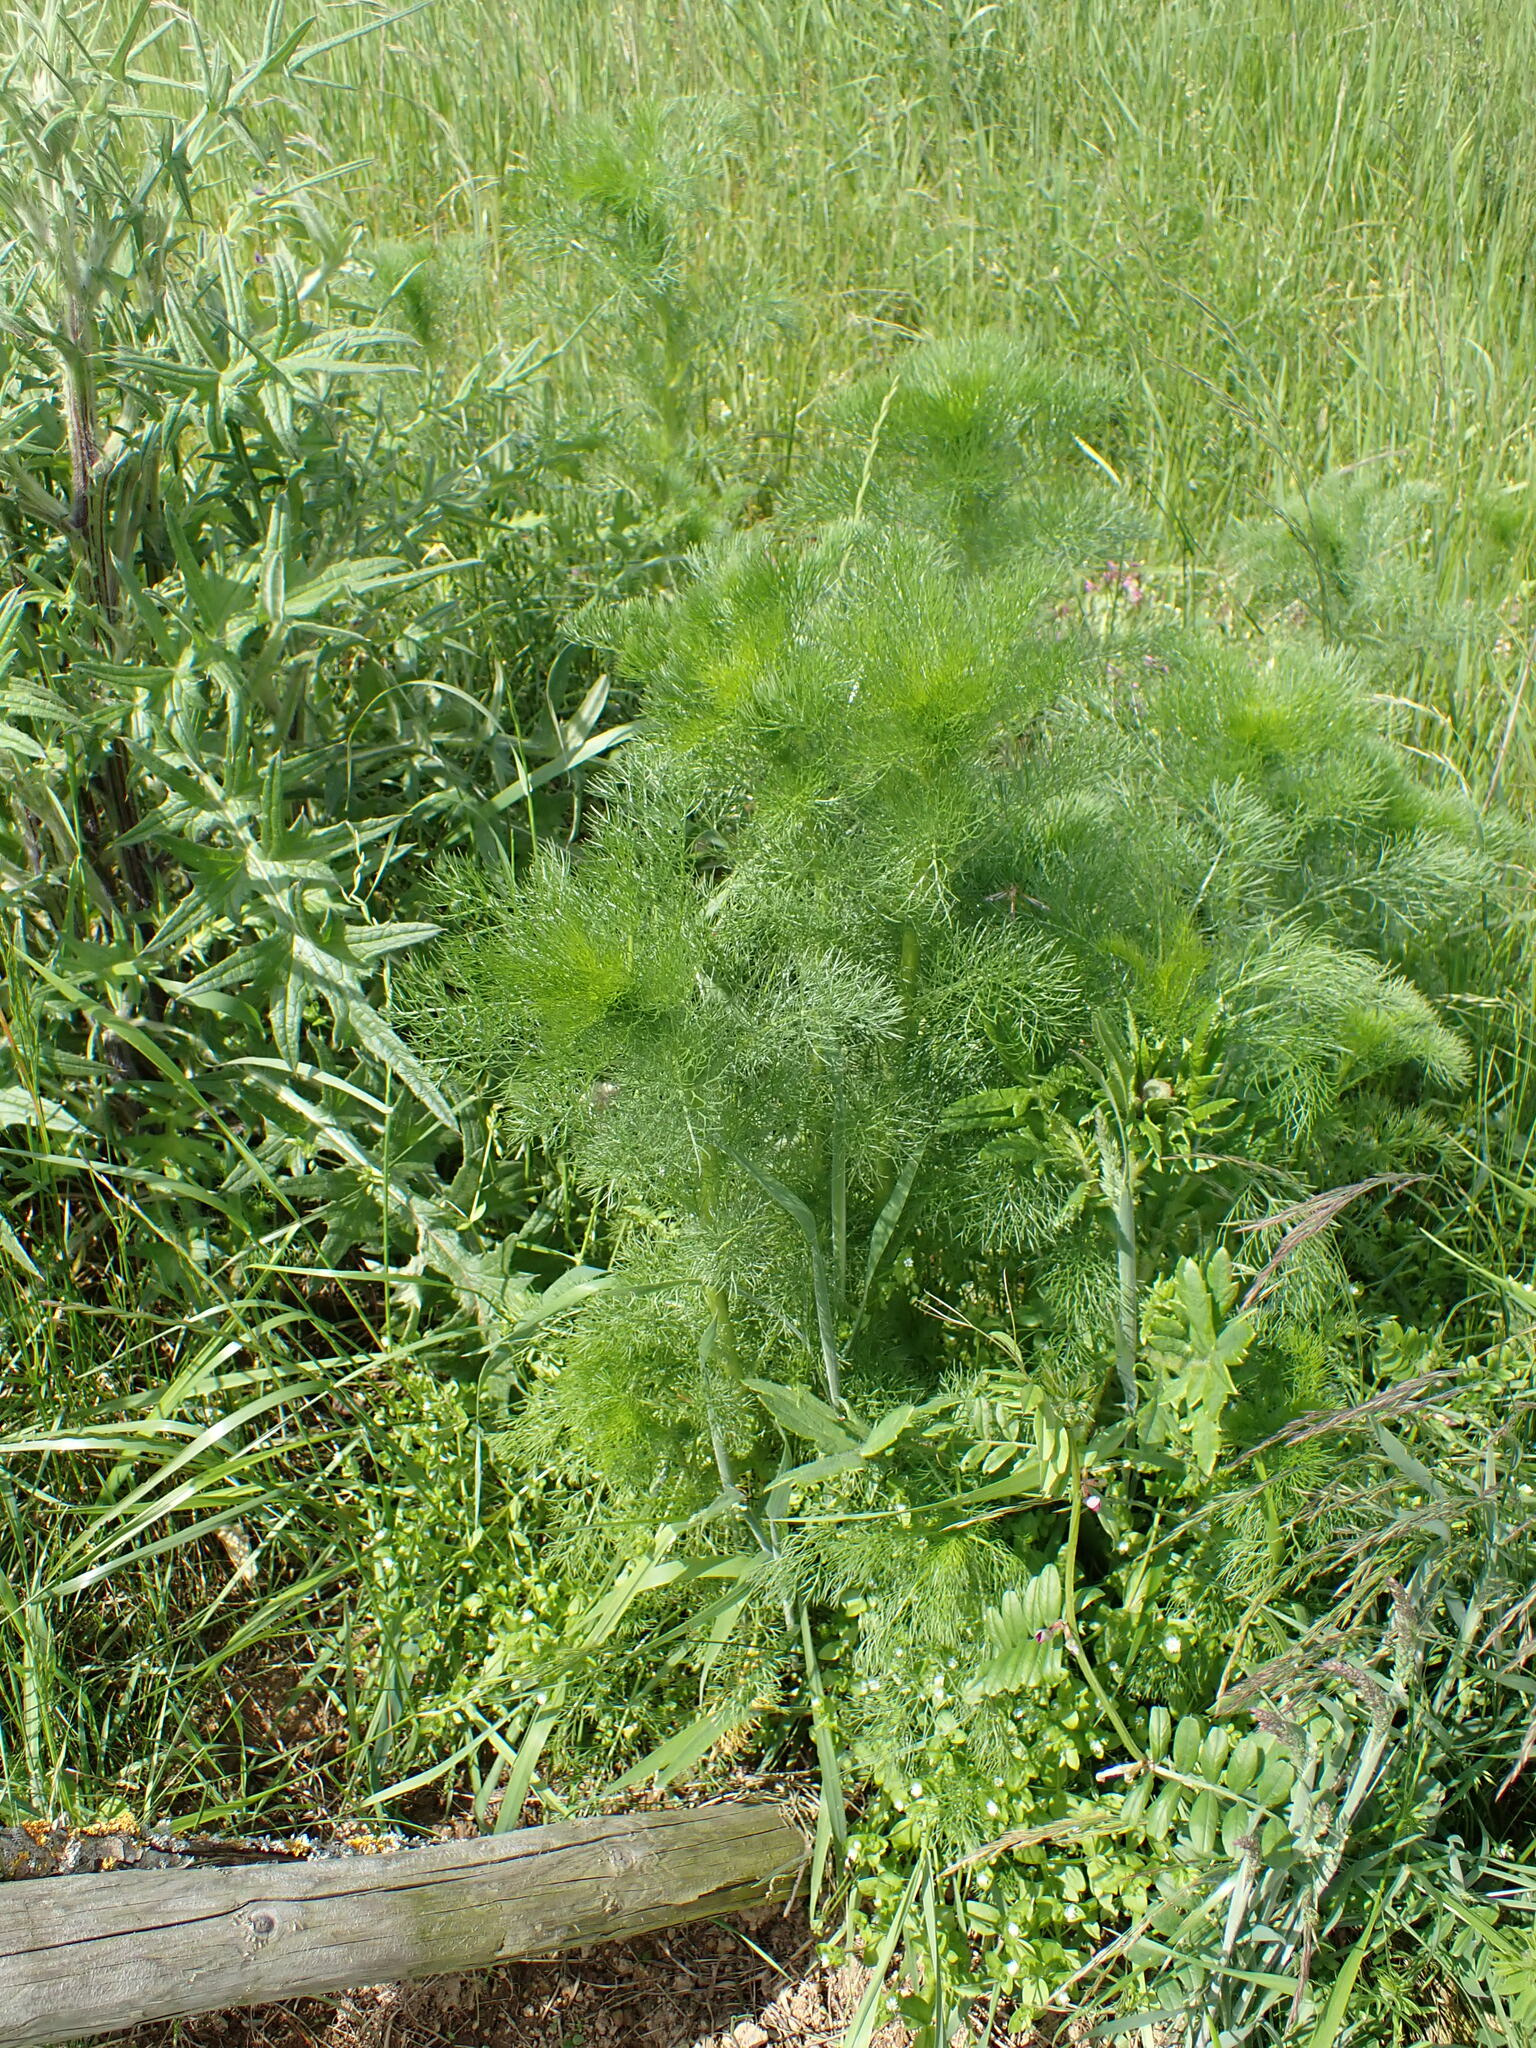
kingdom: Plantae
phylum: Tracheophyta
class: Magnoliopsida
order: Apiales
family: Apiaceae
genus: Foeniculum
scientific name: Foeniculum vulgare
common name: Fennel
